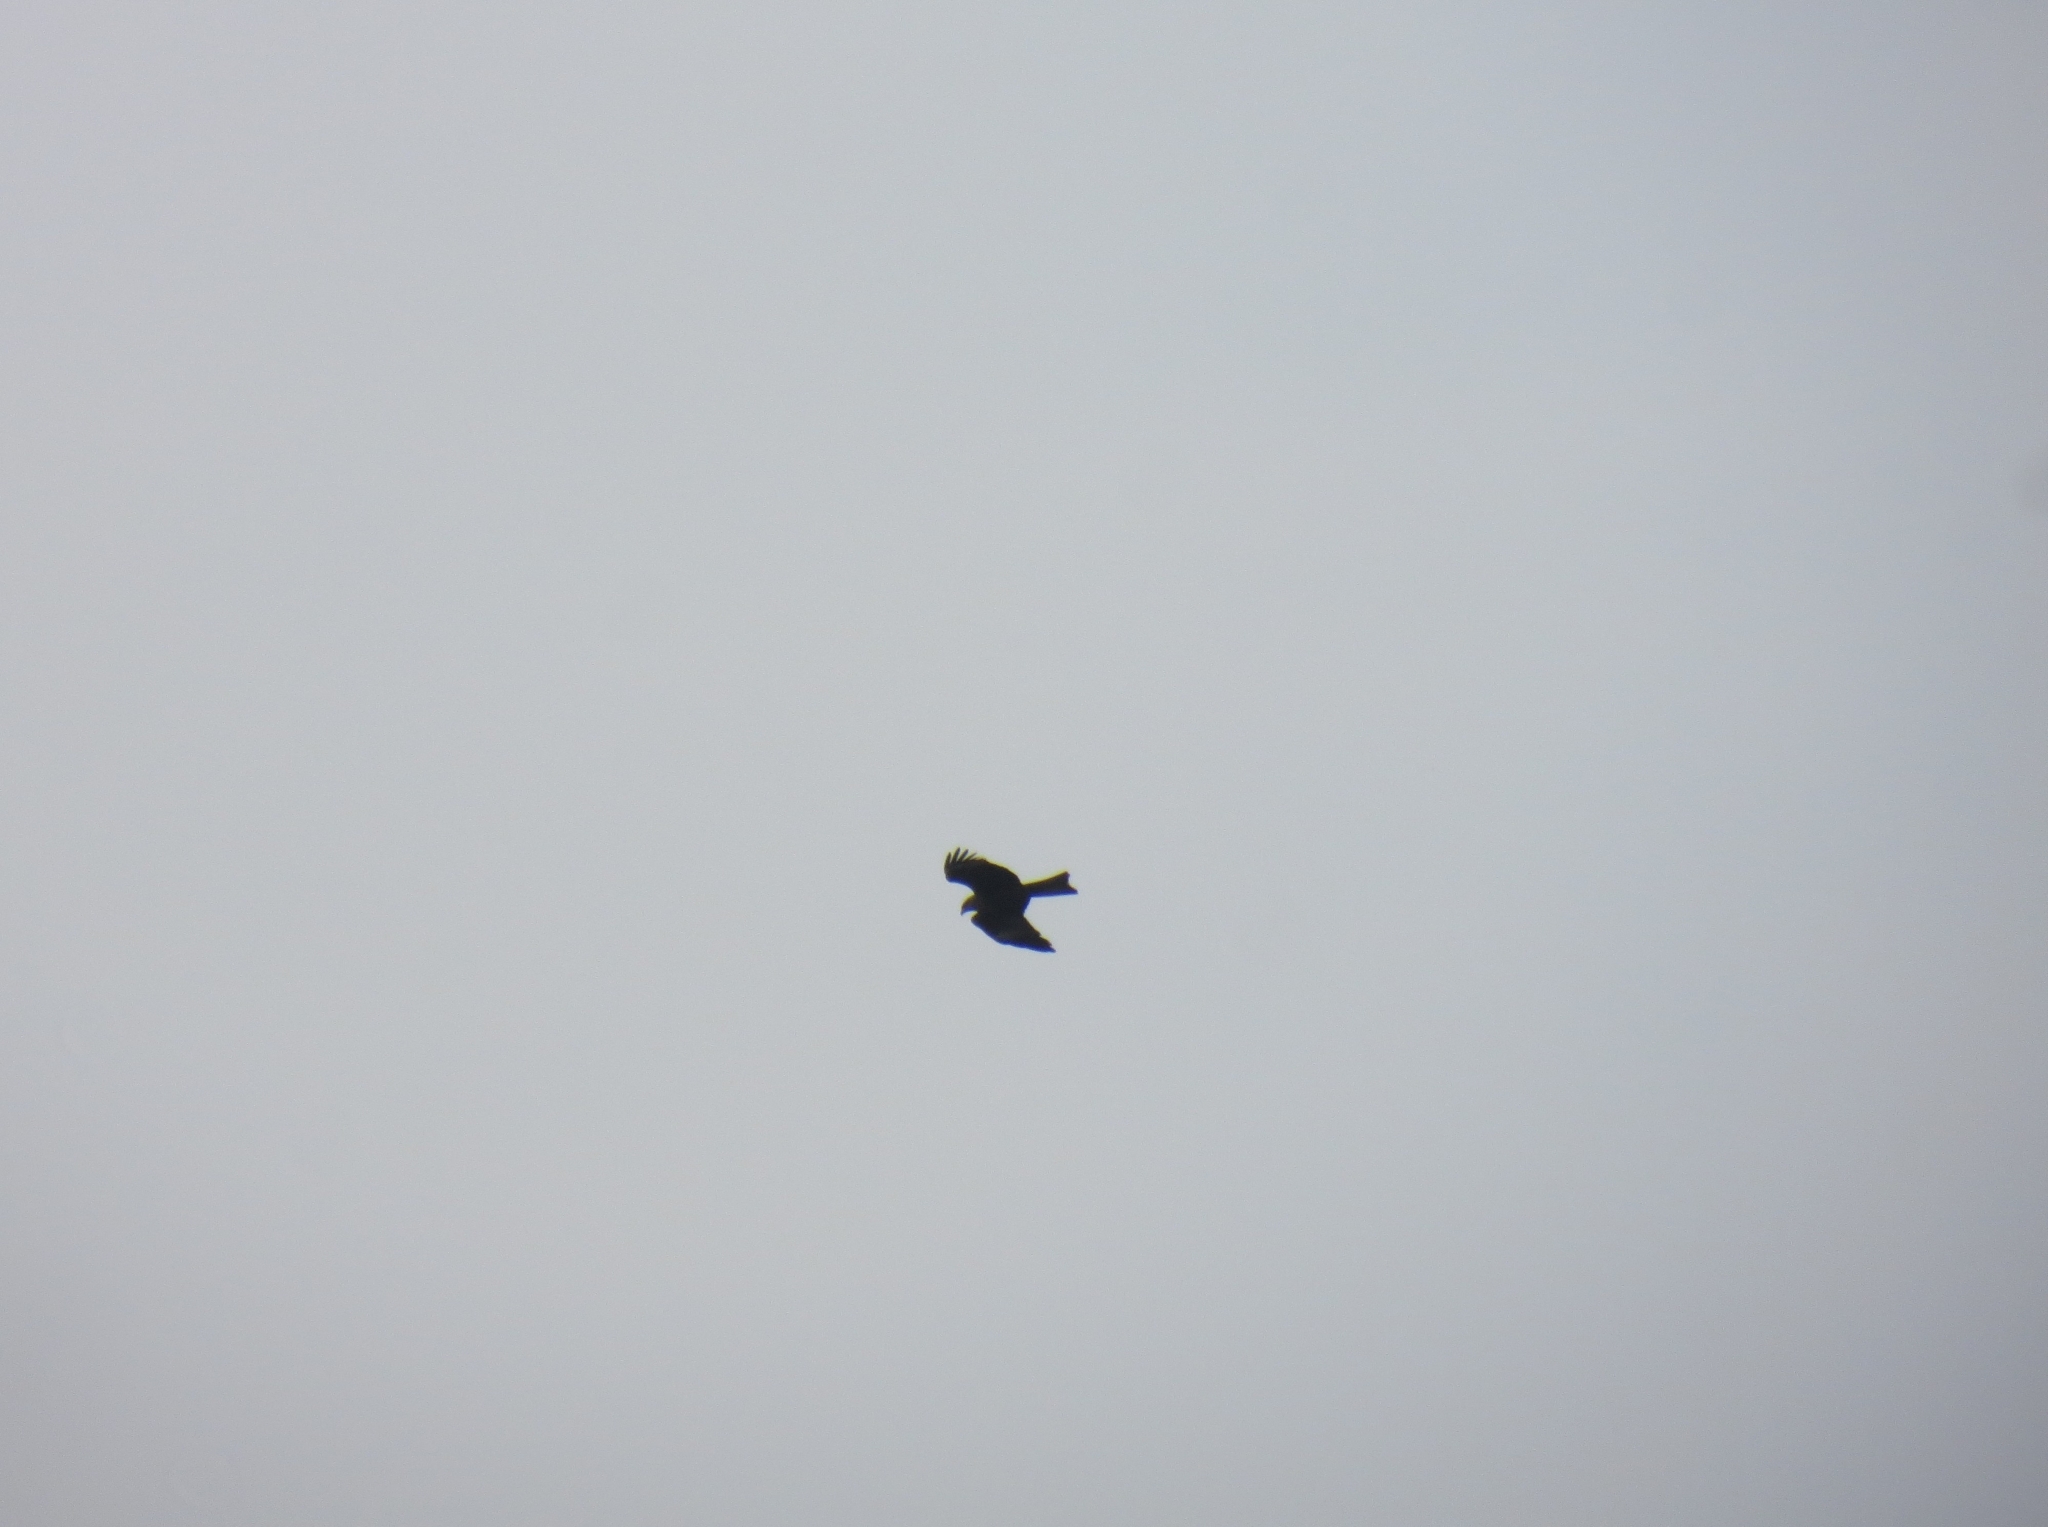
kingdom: Animalia
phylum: Chordata
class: Aves
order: Accipitriformes
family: Accipitridae
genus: Milvus
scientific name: Milvus migrans
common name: Black kite
